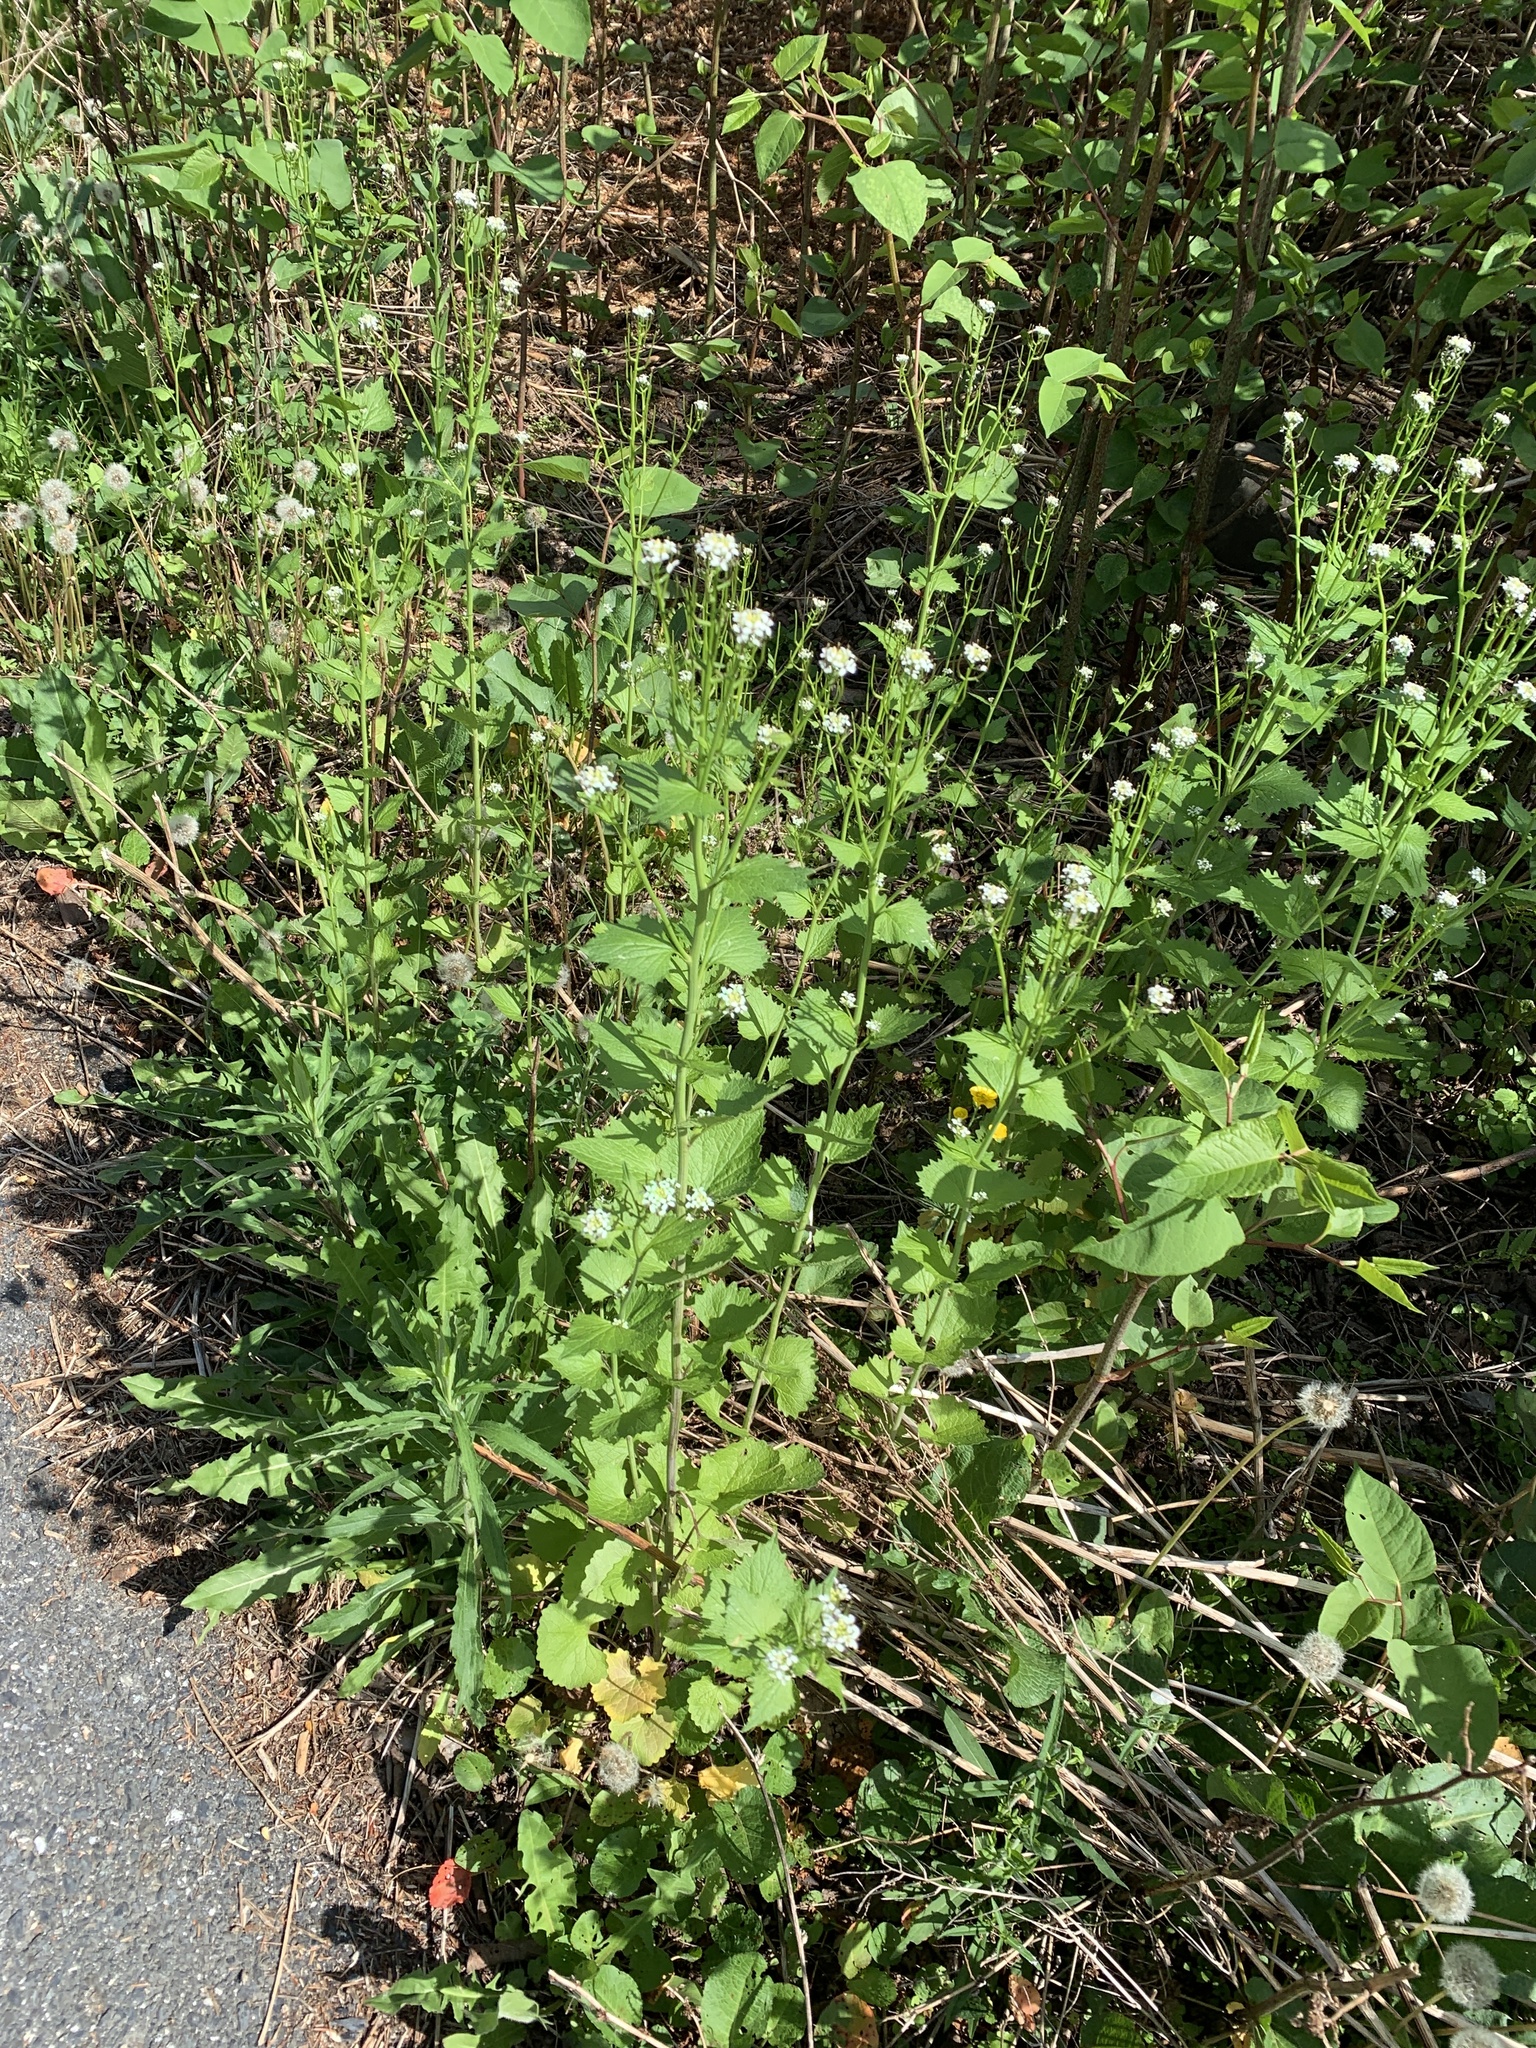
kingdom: Plantae
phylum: Tracheophyta
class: Magnoliopsida
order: Brassicales
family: Brassicaceae
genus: Alliaria
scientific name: Alliaria petiolata
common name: Garlic mustard
